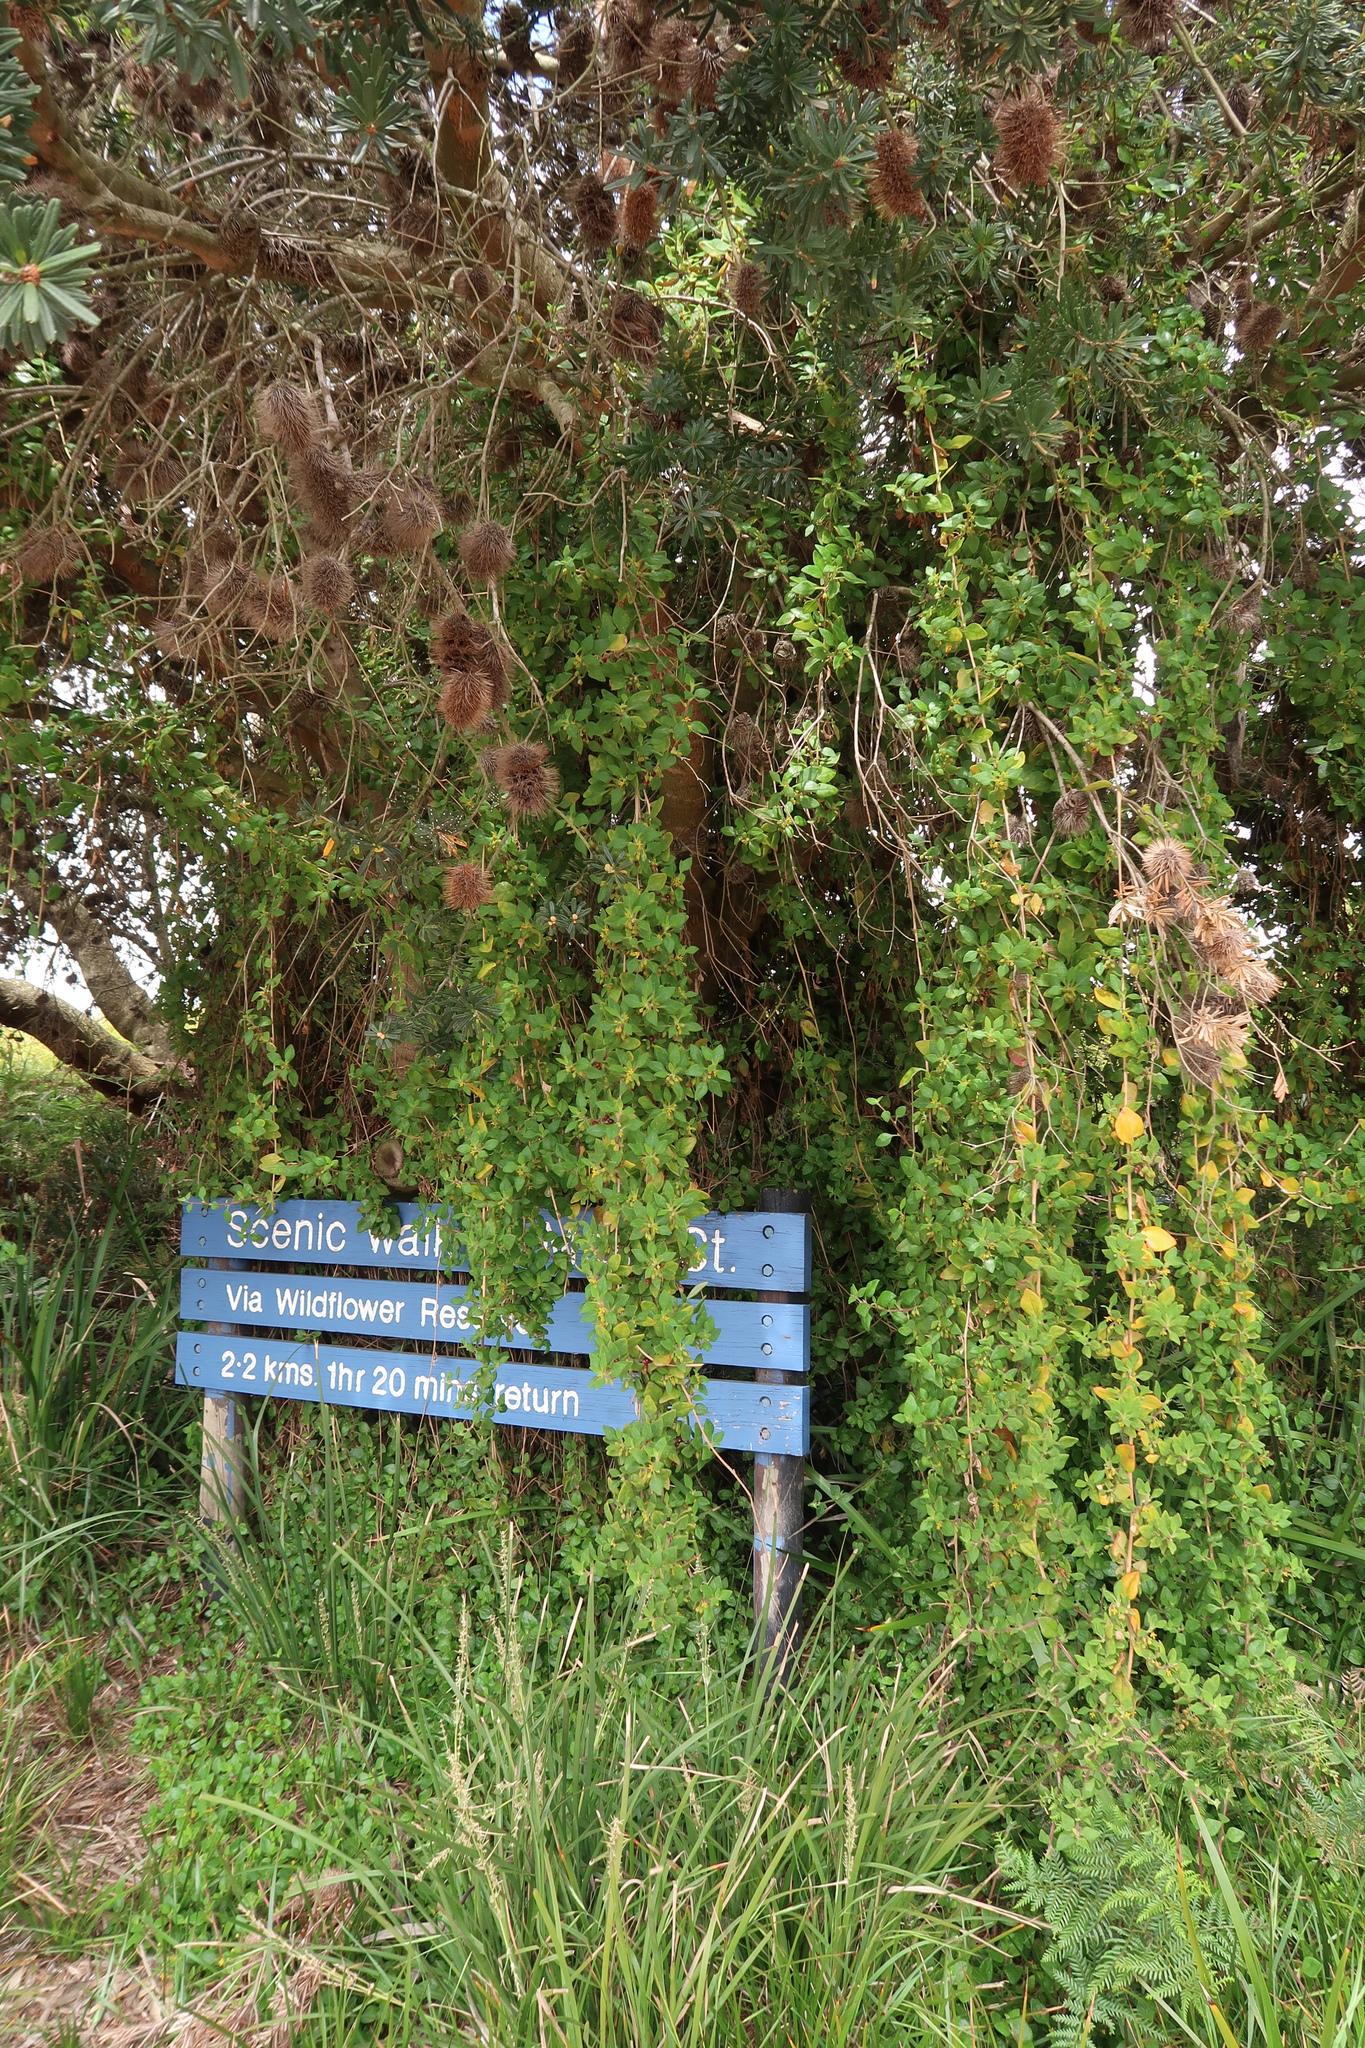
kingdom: Plantae
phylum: Tracheophyta
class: Magnoliopsida
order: Caryophyllales
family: Aizoaceae
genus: Tetragonia
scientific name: Tetragonia implexicoma
